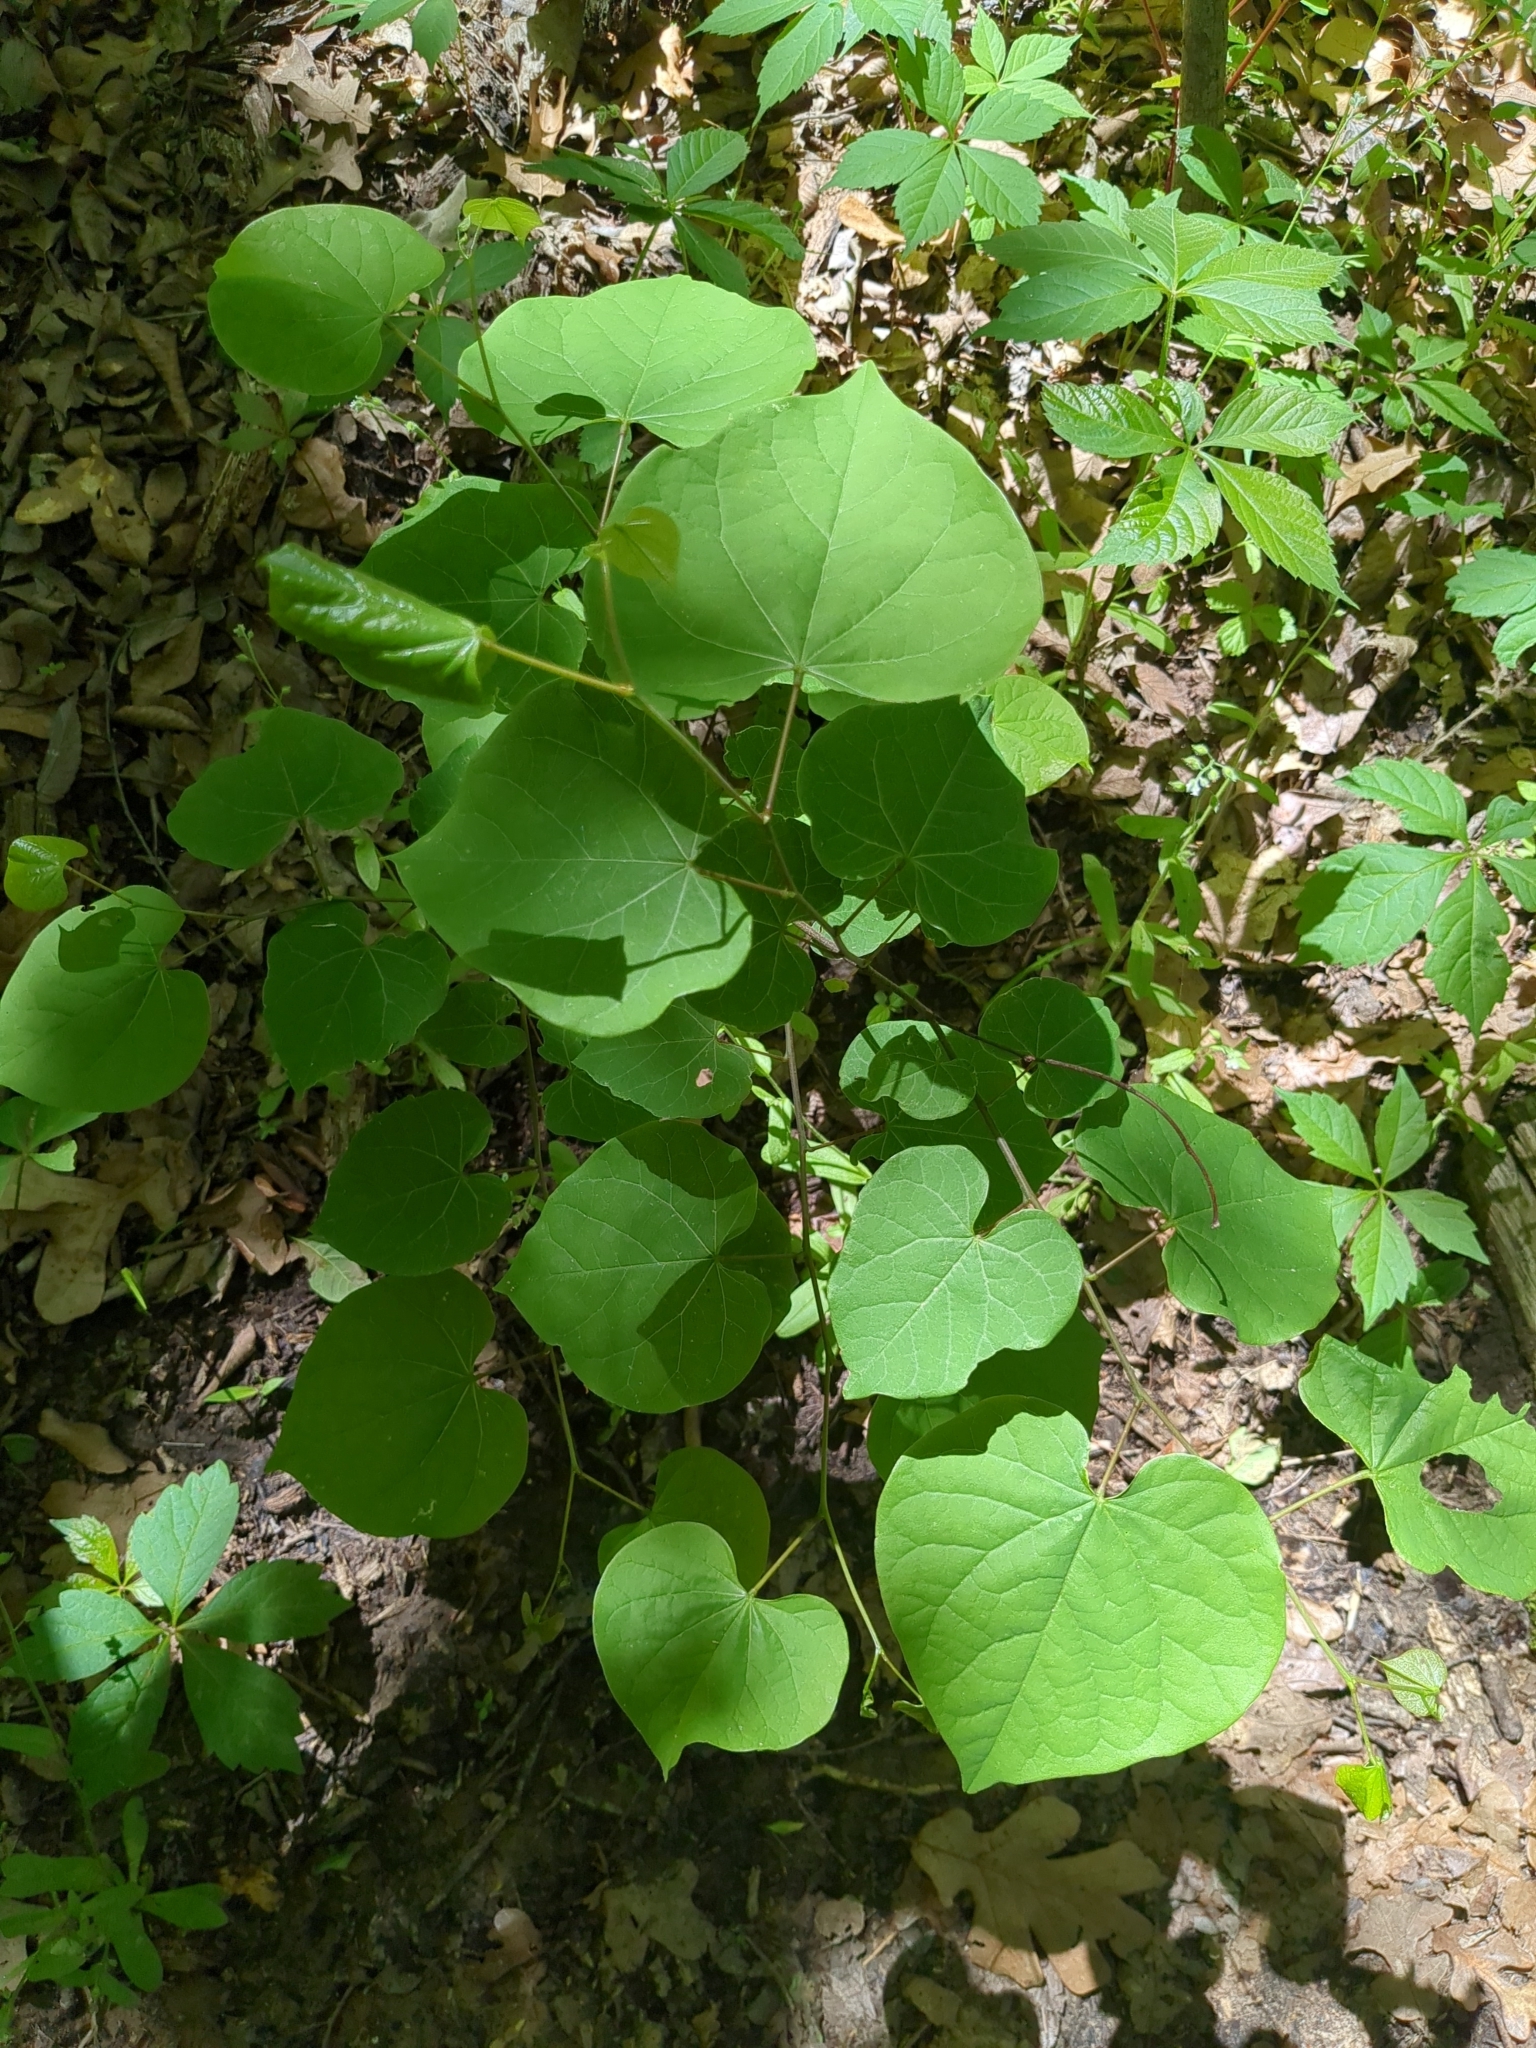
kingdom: Plantae
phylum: Tracheophyta
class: Magnoliopsida
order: Fabales
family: Fabaceae
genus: Cercis
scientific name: Cercis canadensis
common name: Eastern redbud
